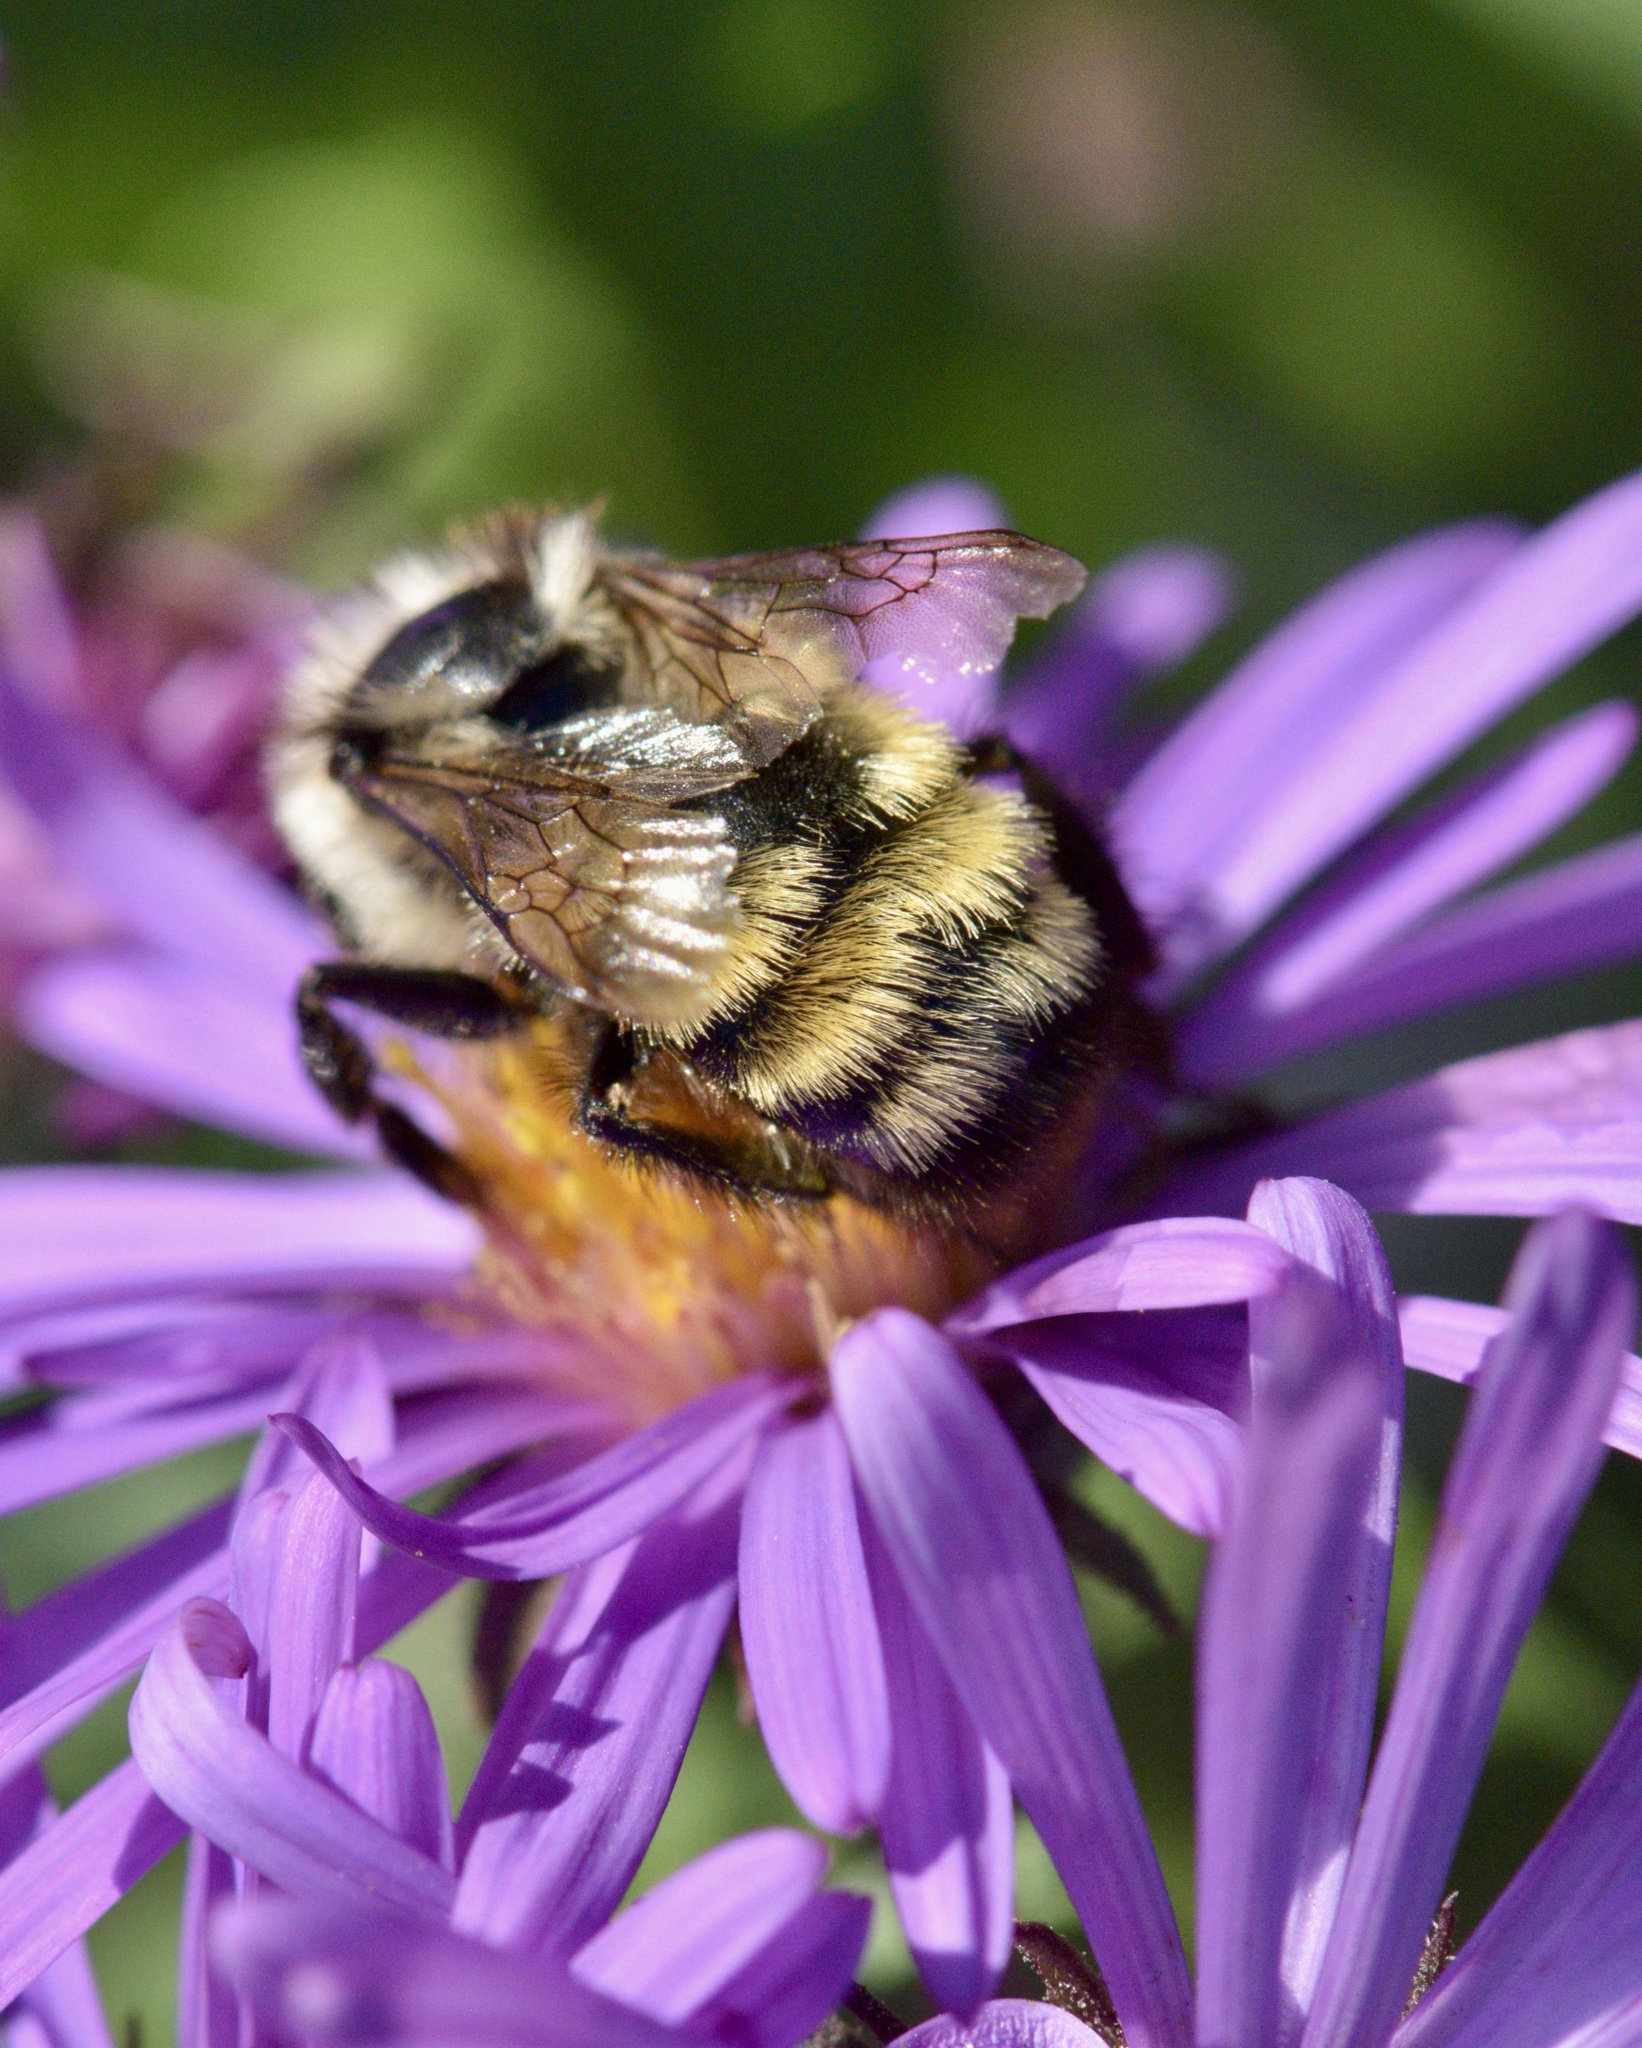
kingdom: Animalia
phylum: Arthropoda
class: Insecta
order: Hymenoptera
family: Apidae
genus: Bombus
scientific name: Bombus ternarius
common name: Tri-colored bumble bee
